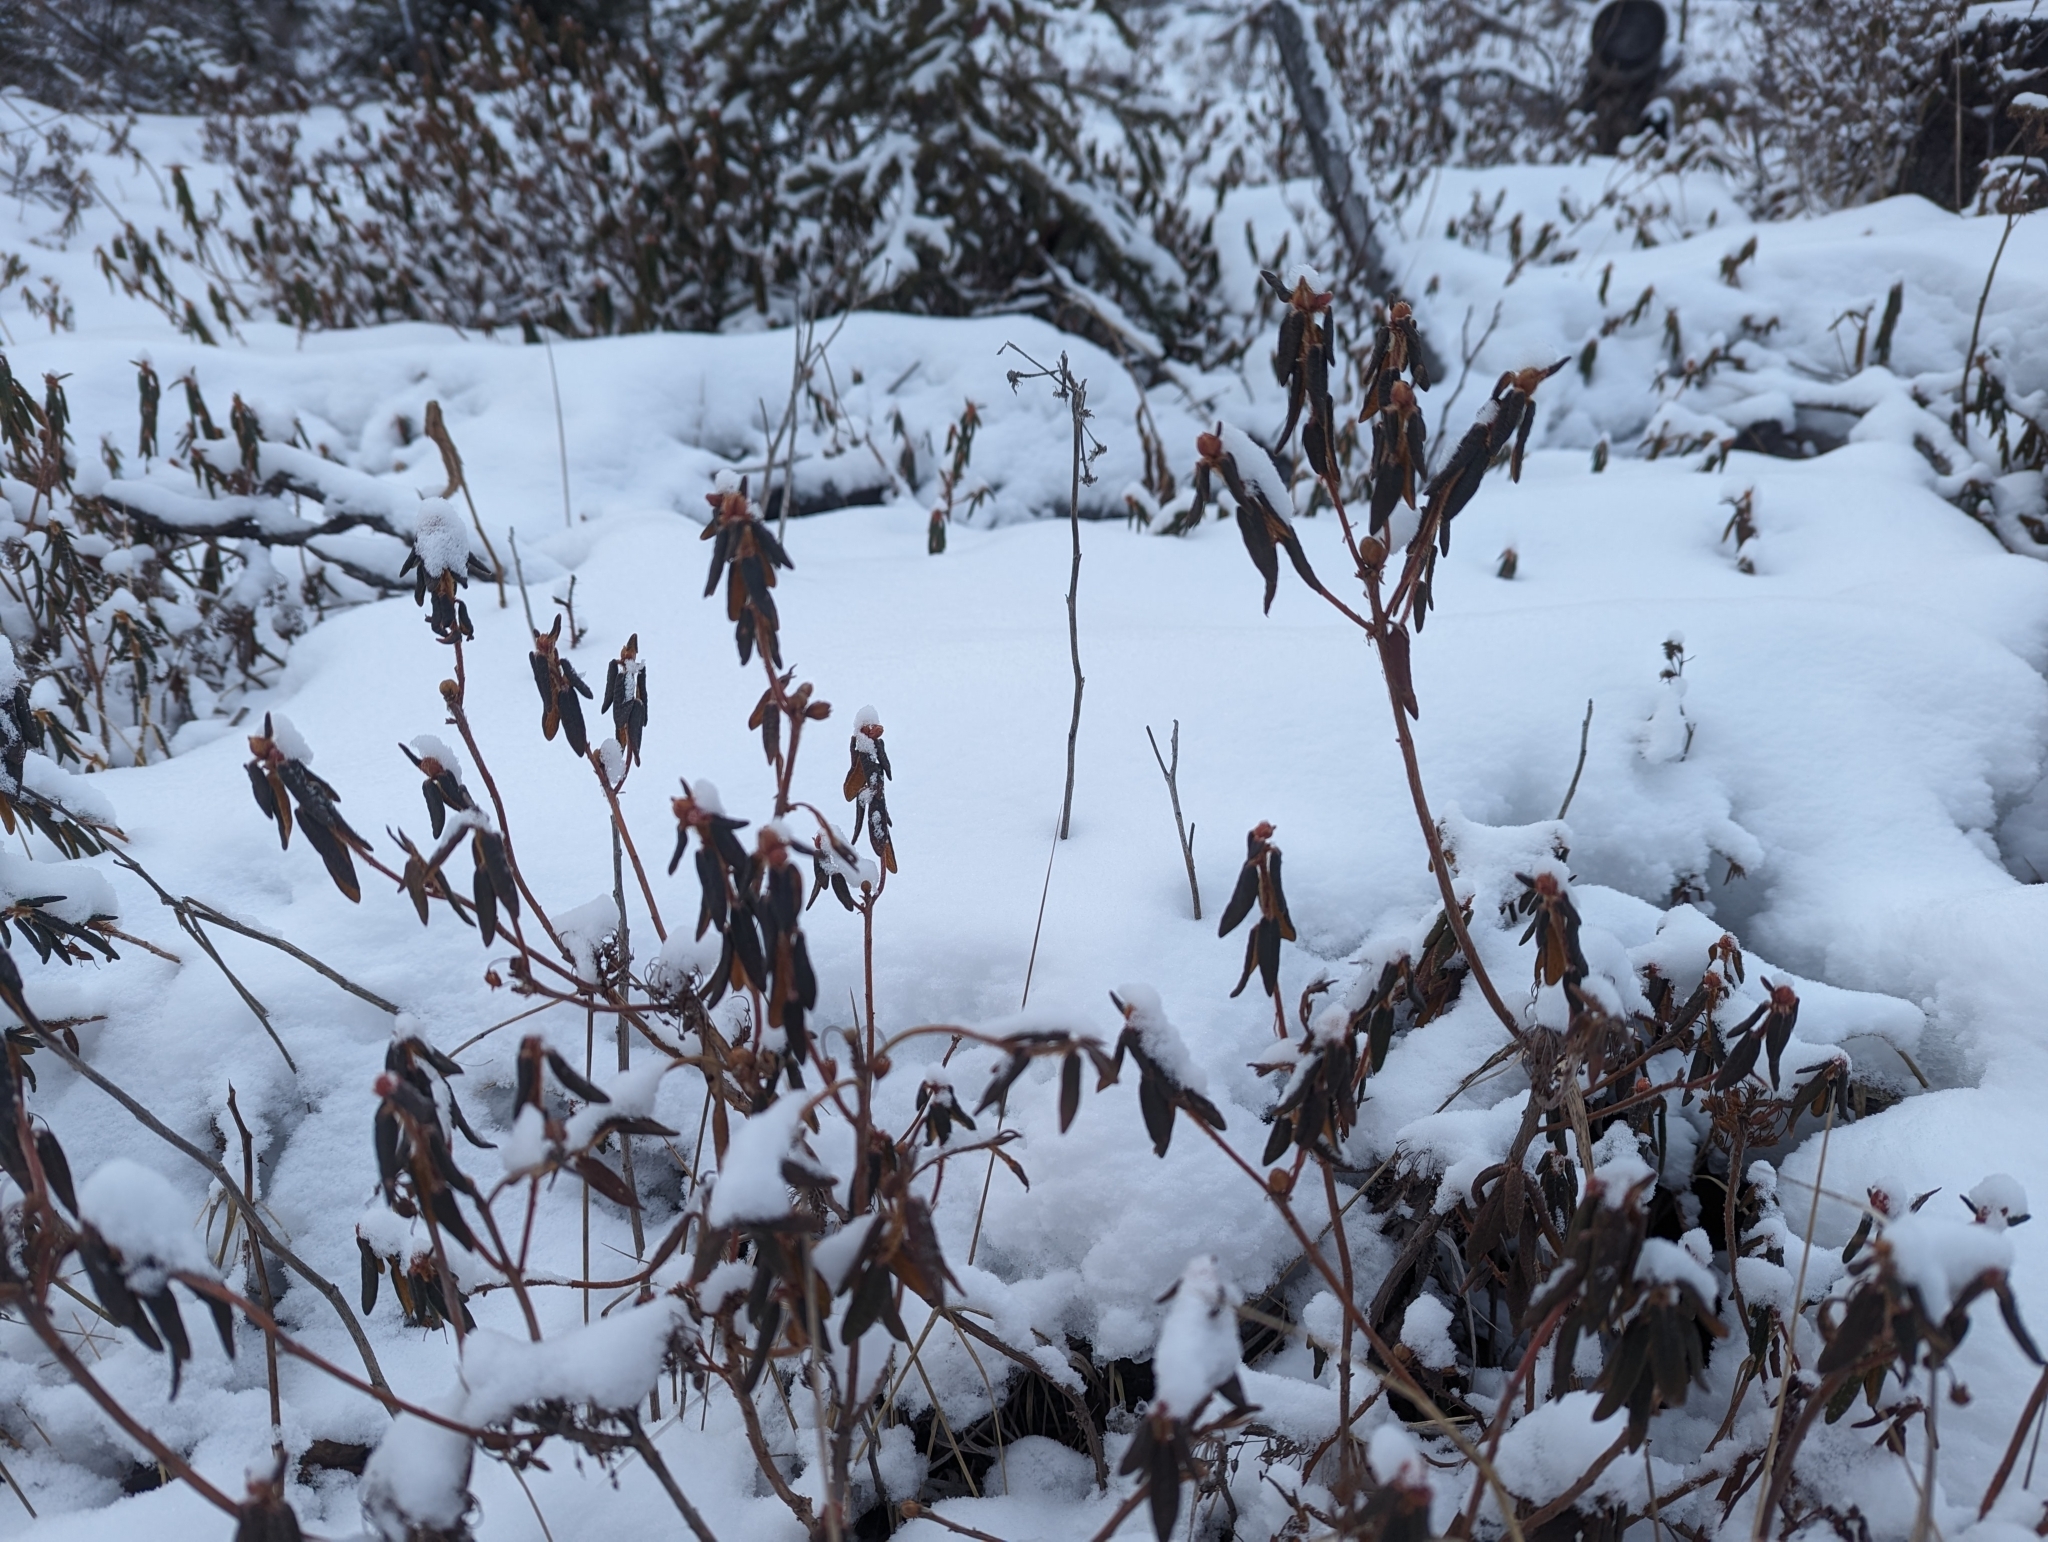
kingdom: Plantae
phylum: Tracheophyta
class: Magnoliopsida
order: Ericales
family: Ericaceae
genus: Rhododendron
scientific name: Rhododendron groenlandicum
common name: Bog labrador tea
